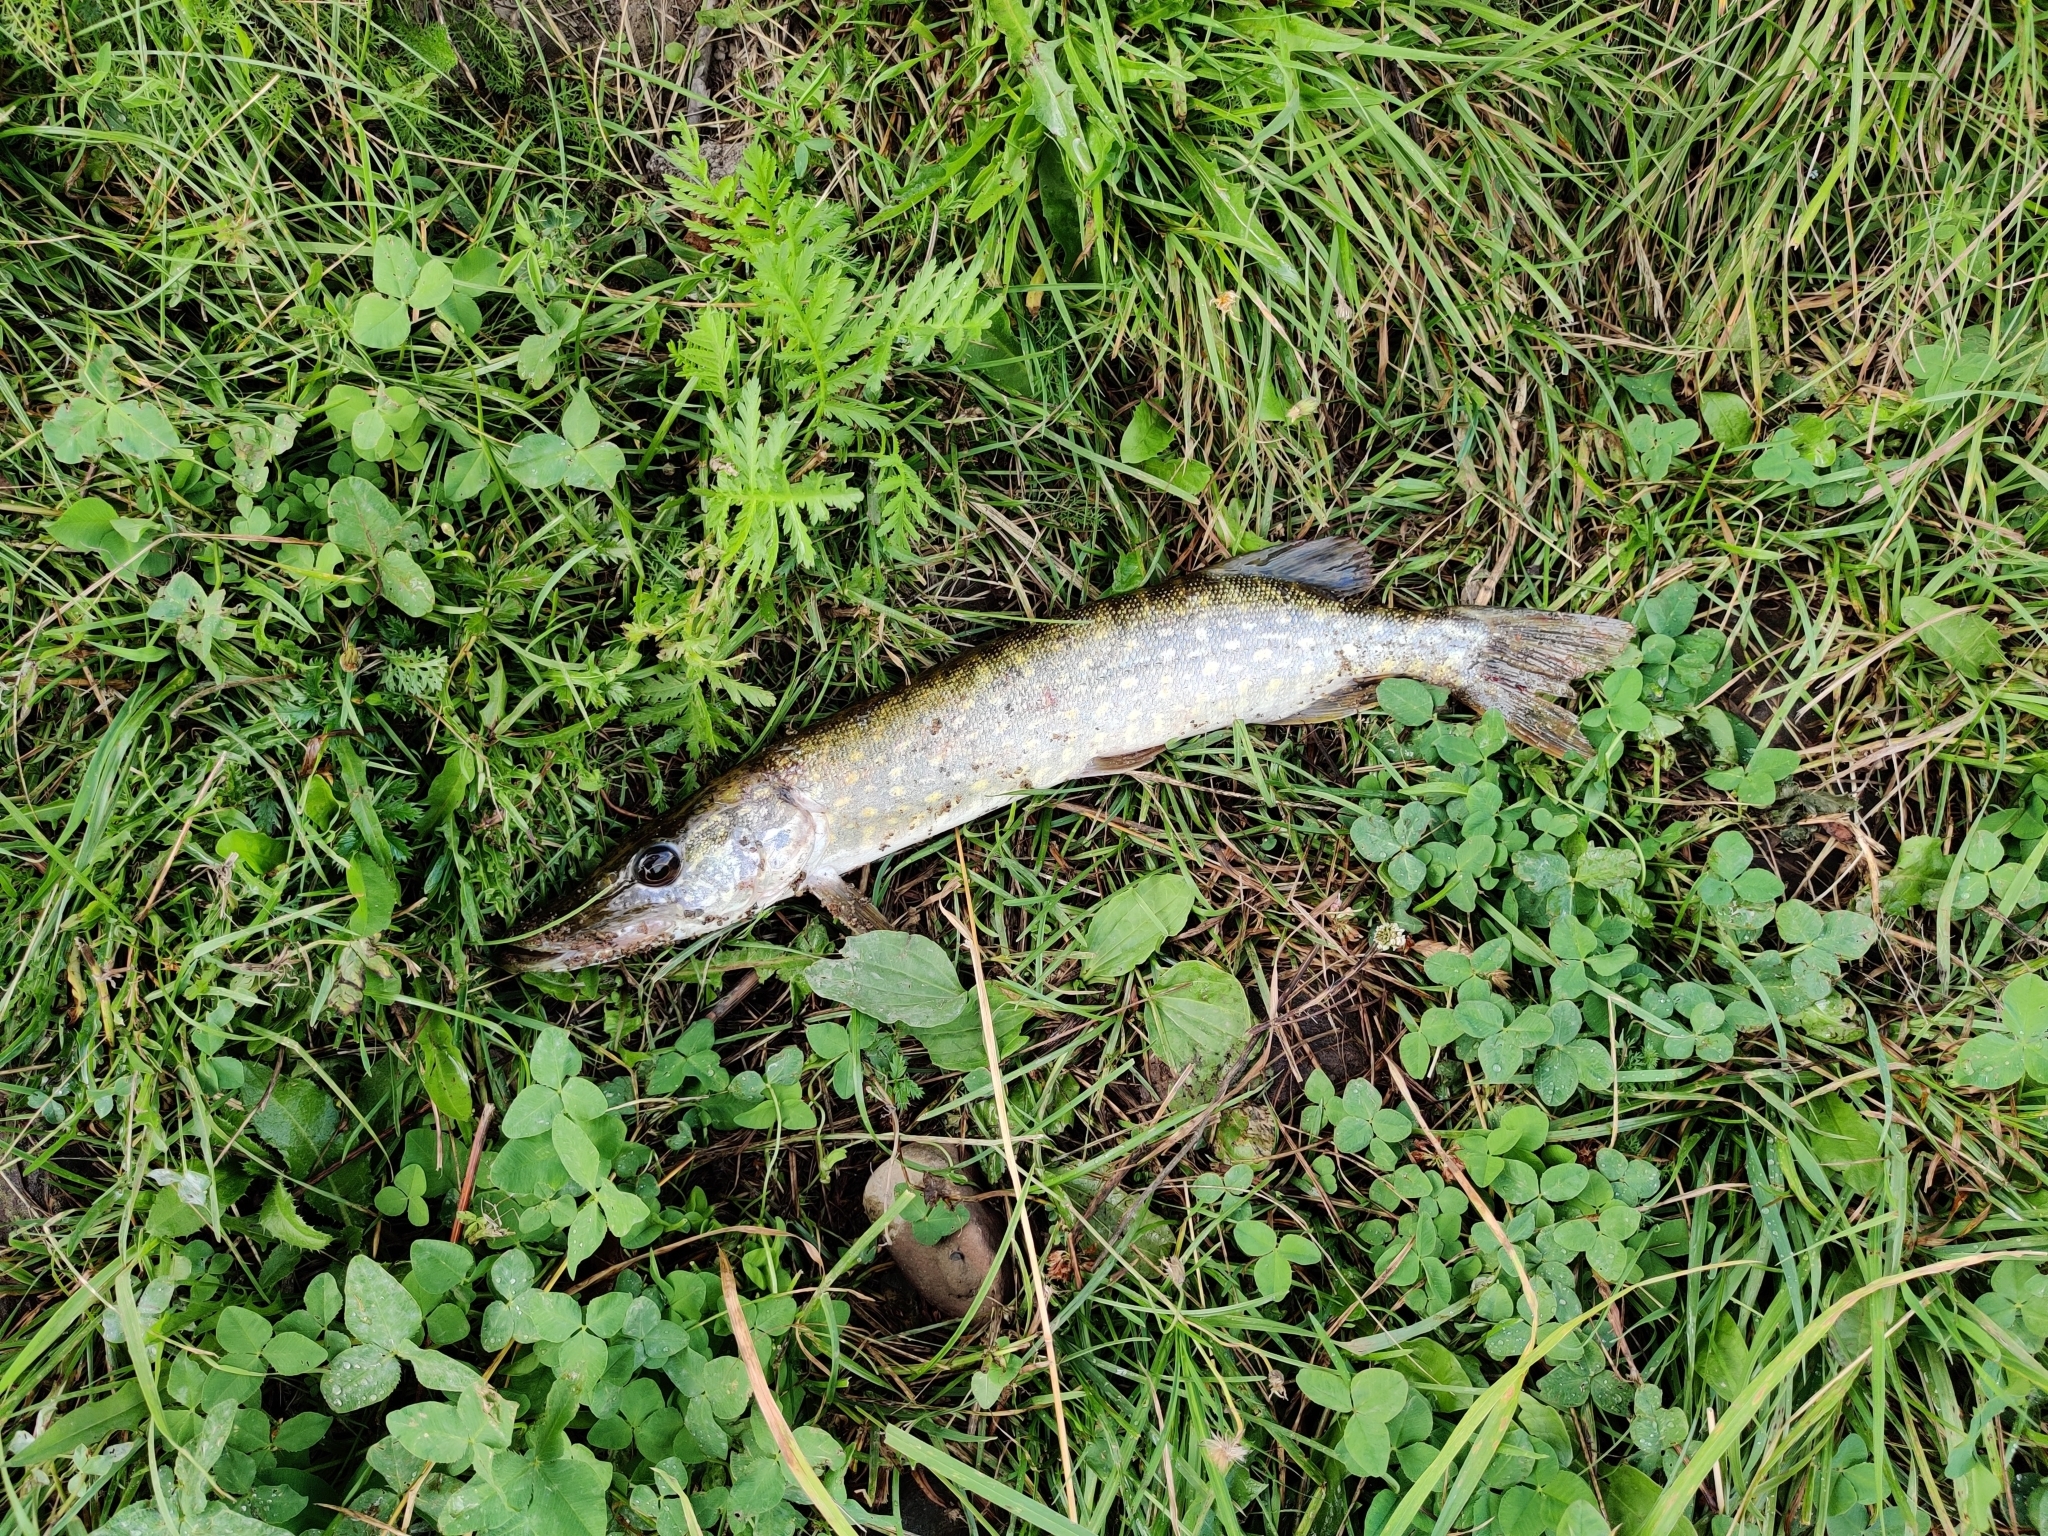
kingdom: Animalia
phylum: Chordata
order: Esociformes
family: Esocidae
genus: Esox
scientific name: Esox lucius
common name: Northern pike
